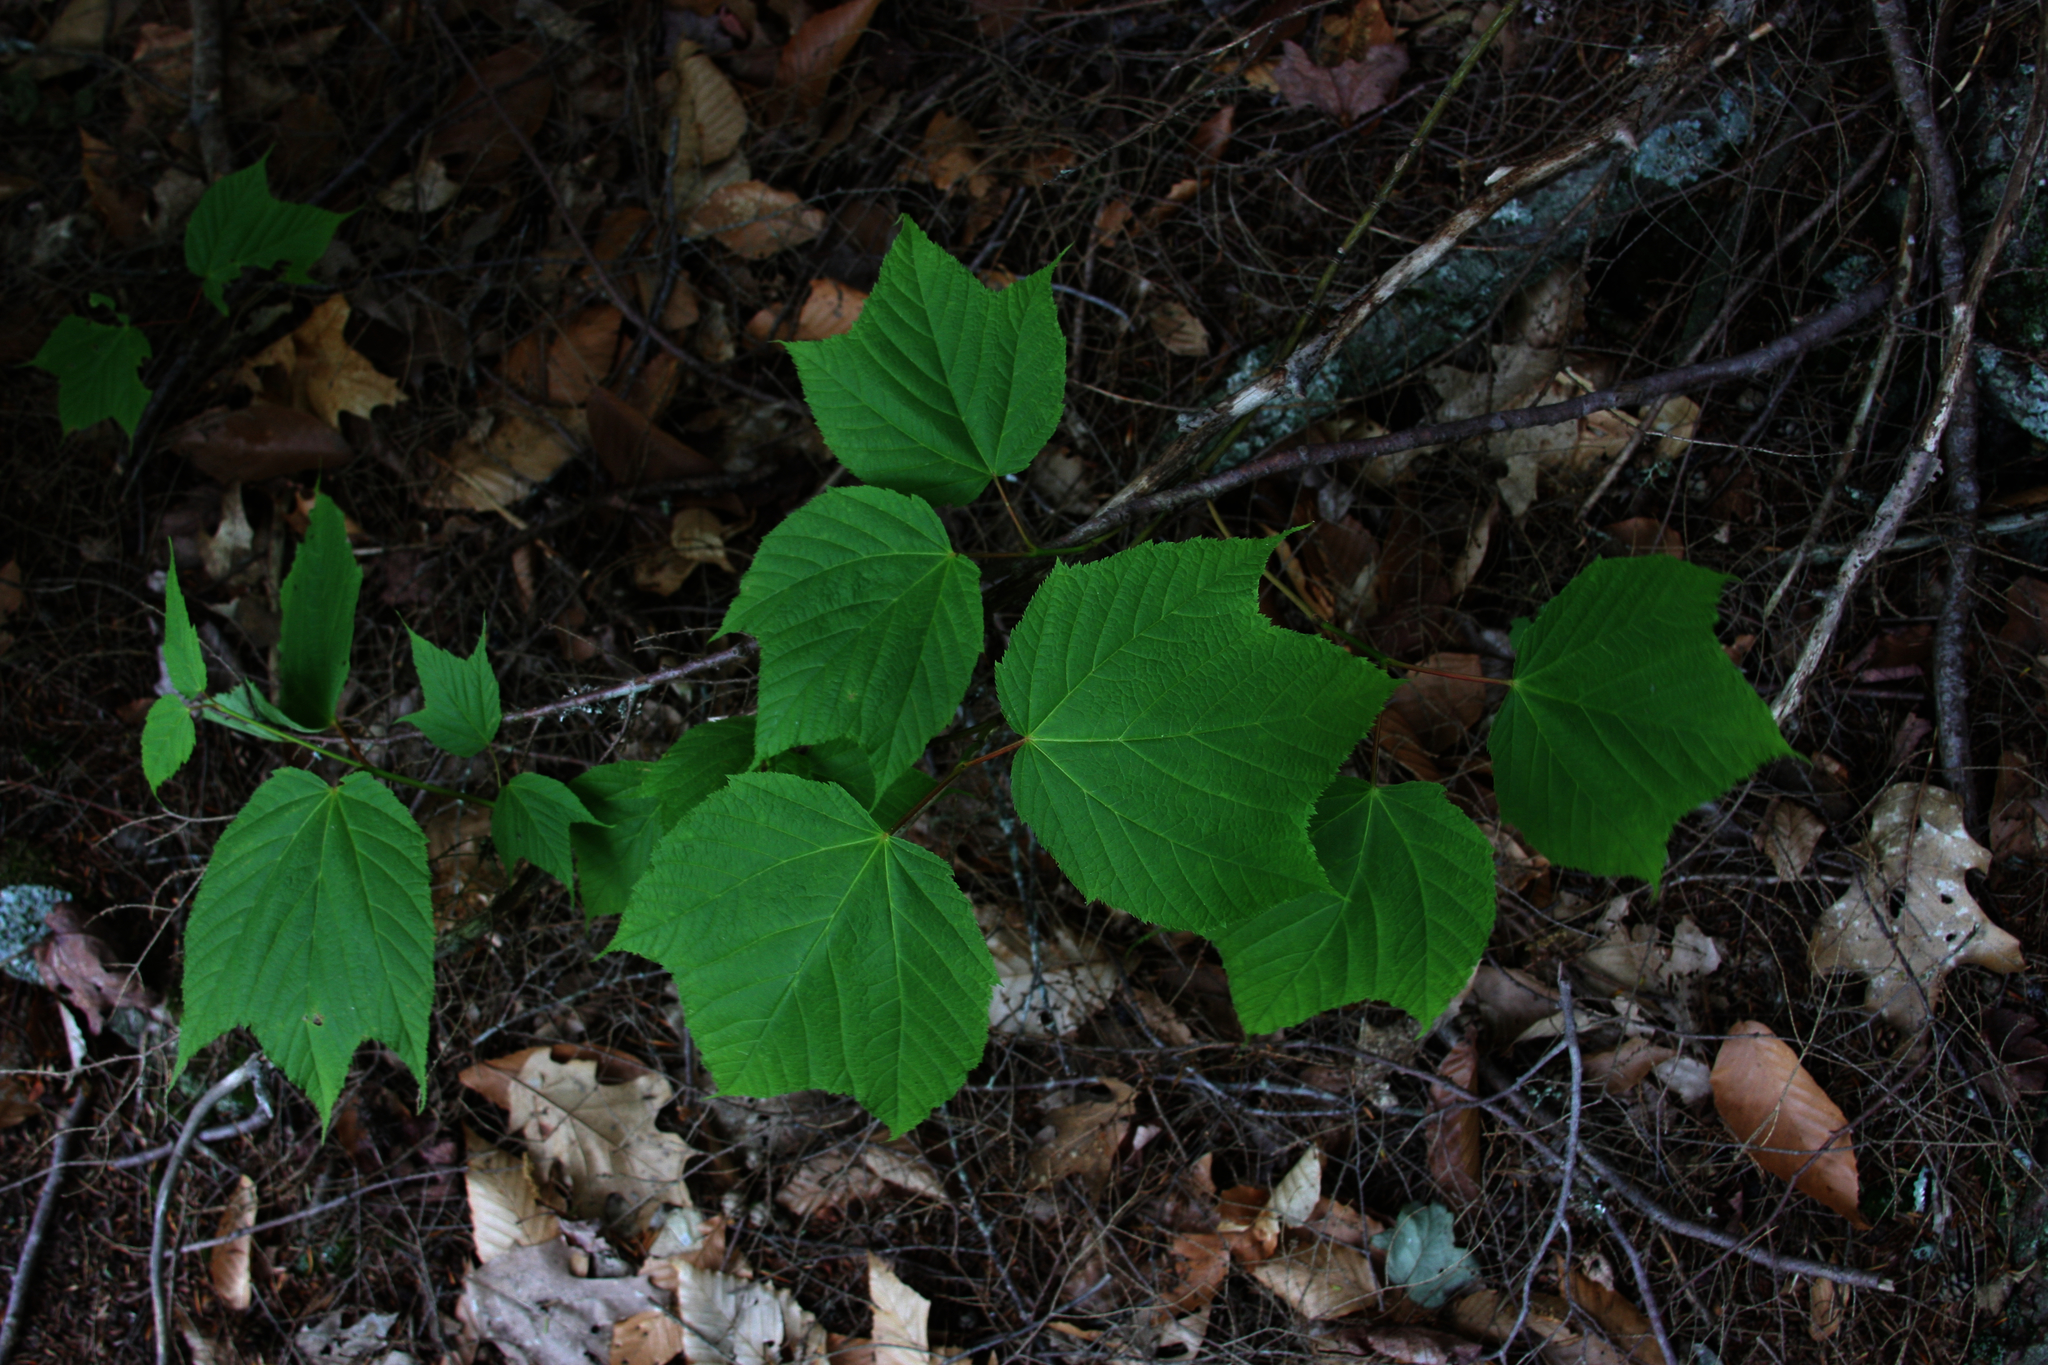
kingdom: Plantae
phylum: Tracheophyta
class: Magnoliopsida
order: Sapindales
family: Sapindaceae
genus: Acer
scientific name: Acer pensylvanicum
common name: Moosewood
